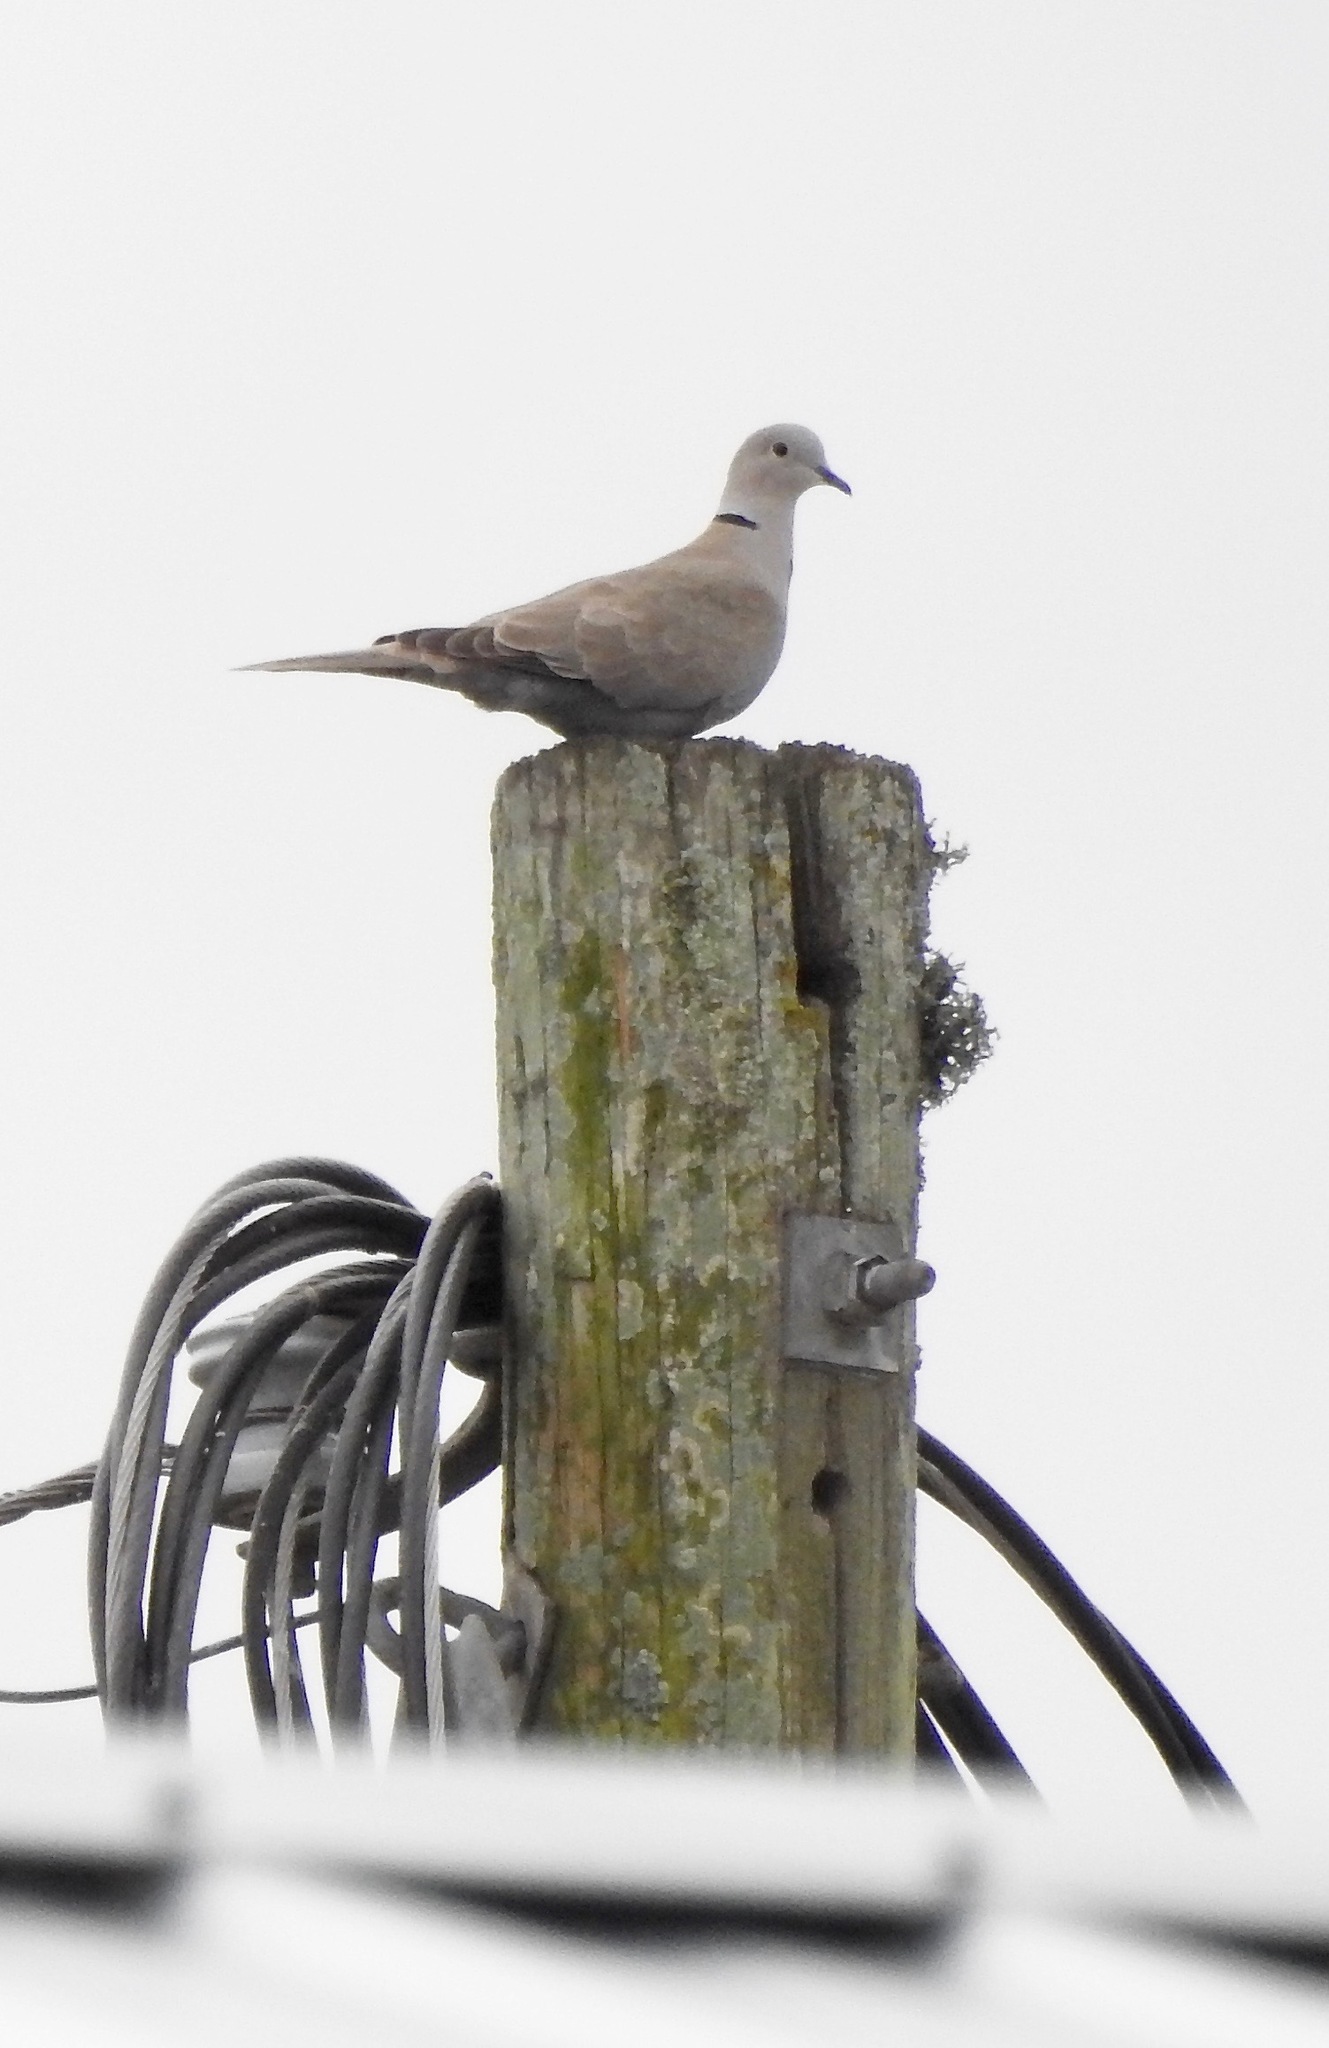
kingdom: Animalia
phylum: Chordata
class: Aves
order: Columbiformes
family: Columbidae
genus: Streptopelia
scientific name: Streptopelia decaocto
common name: Eurasian collared dove
